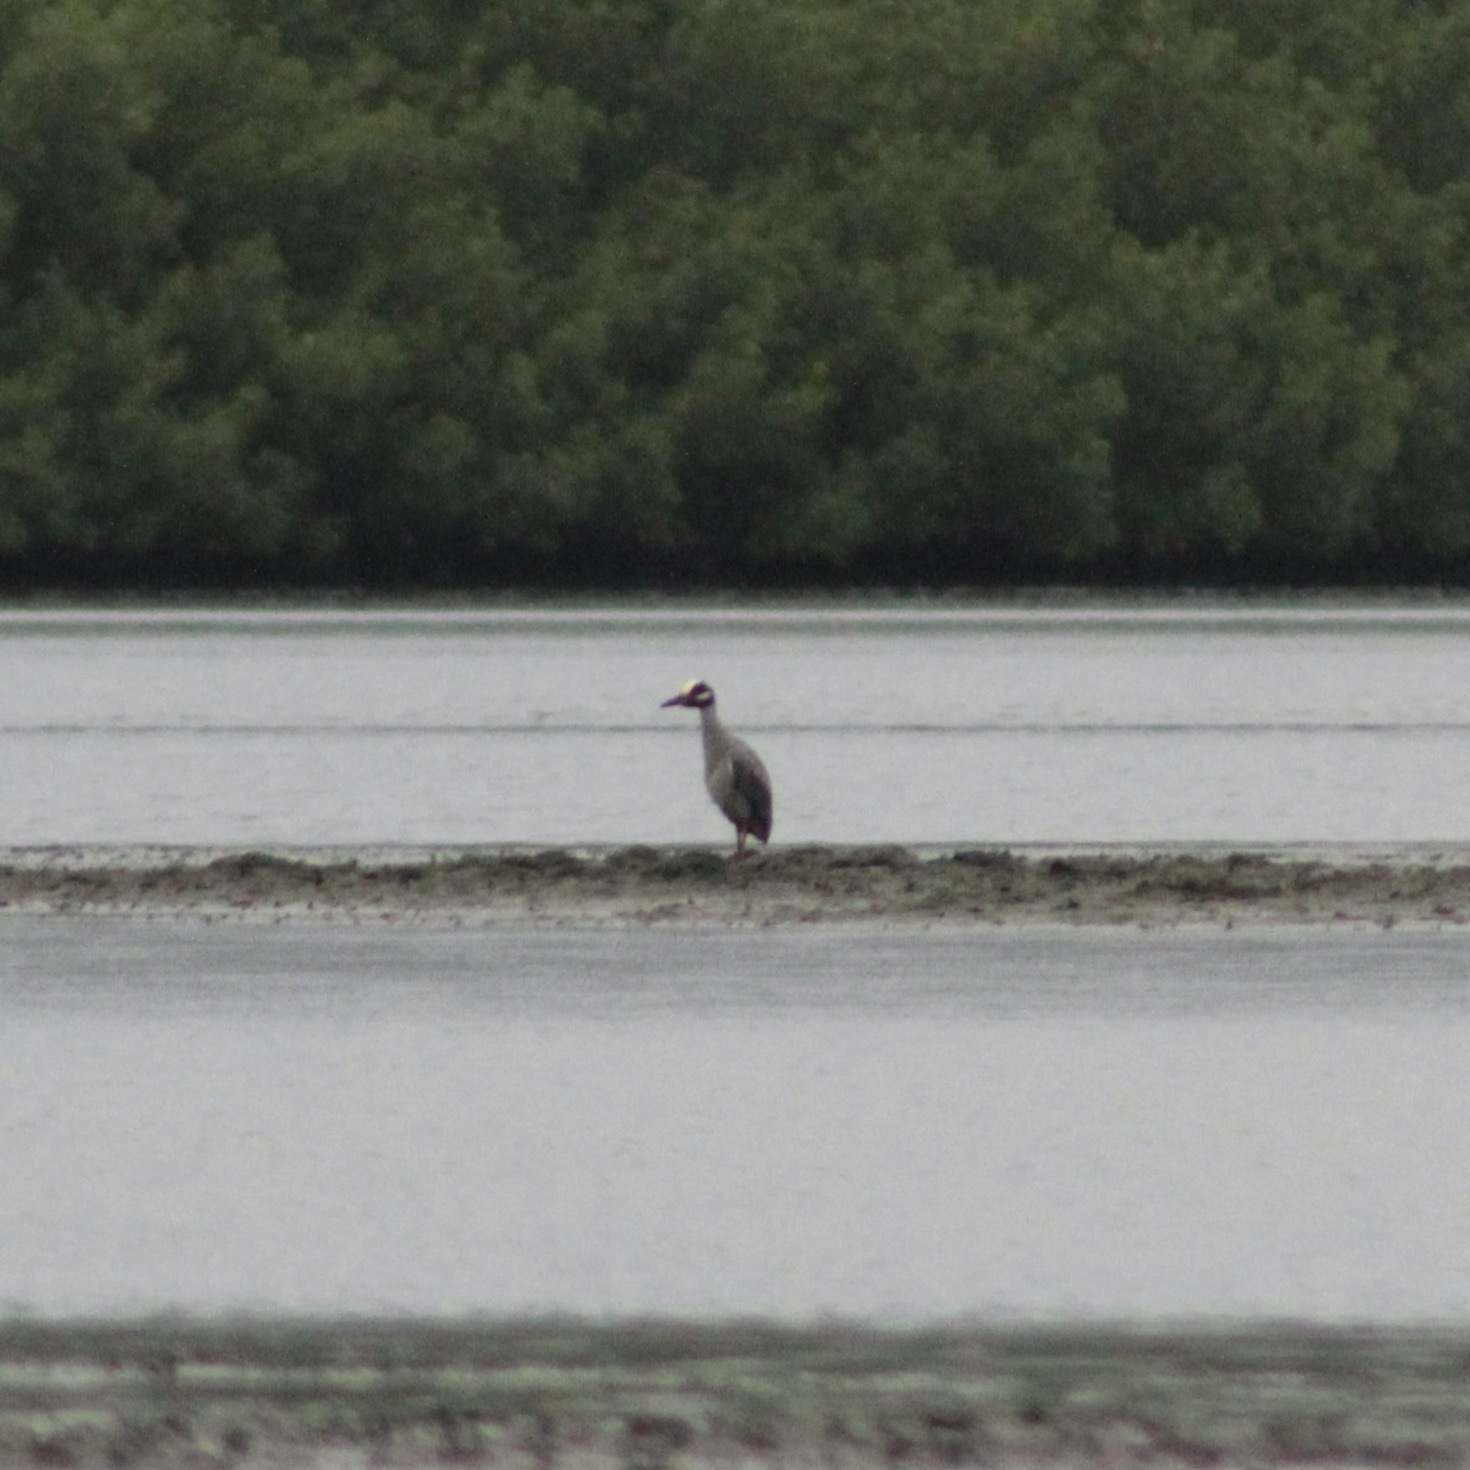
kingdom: Animalia
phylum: Chordata
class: Aves
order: Pelecaniformes
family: Ardeidae
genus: Nyctanassa
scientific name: Nyctanassa violacea
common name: Yellow-crowned night heron
